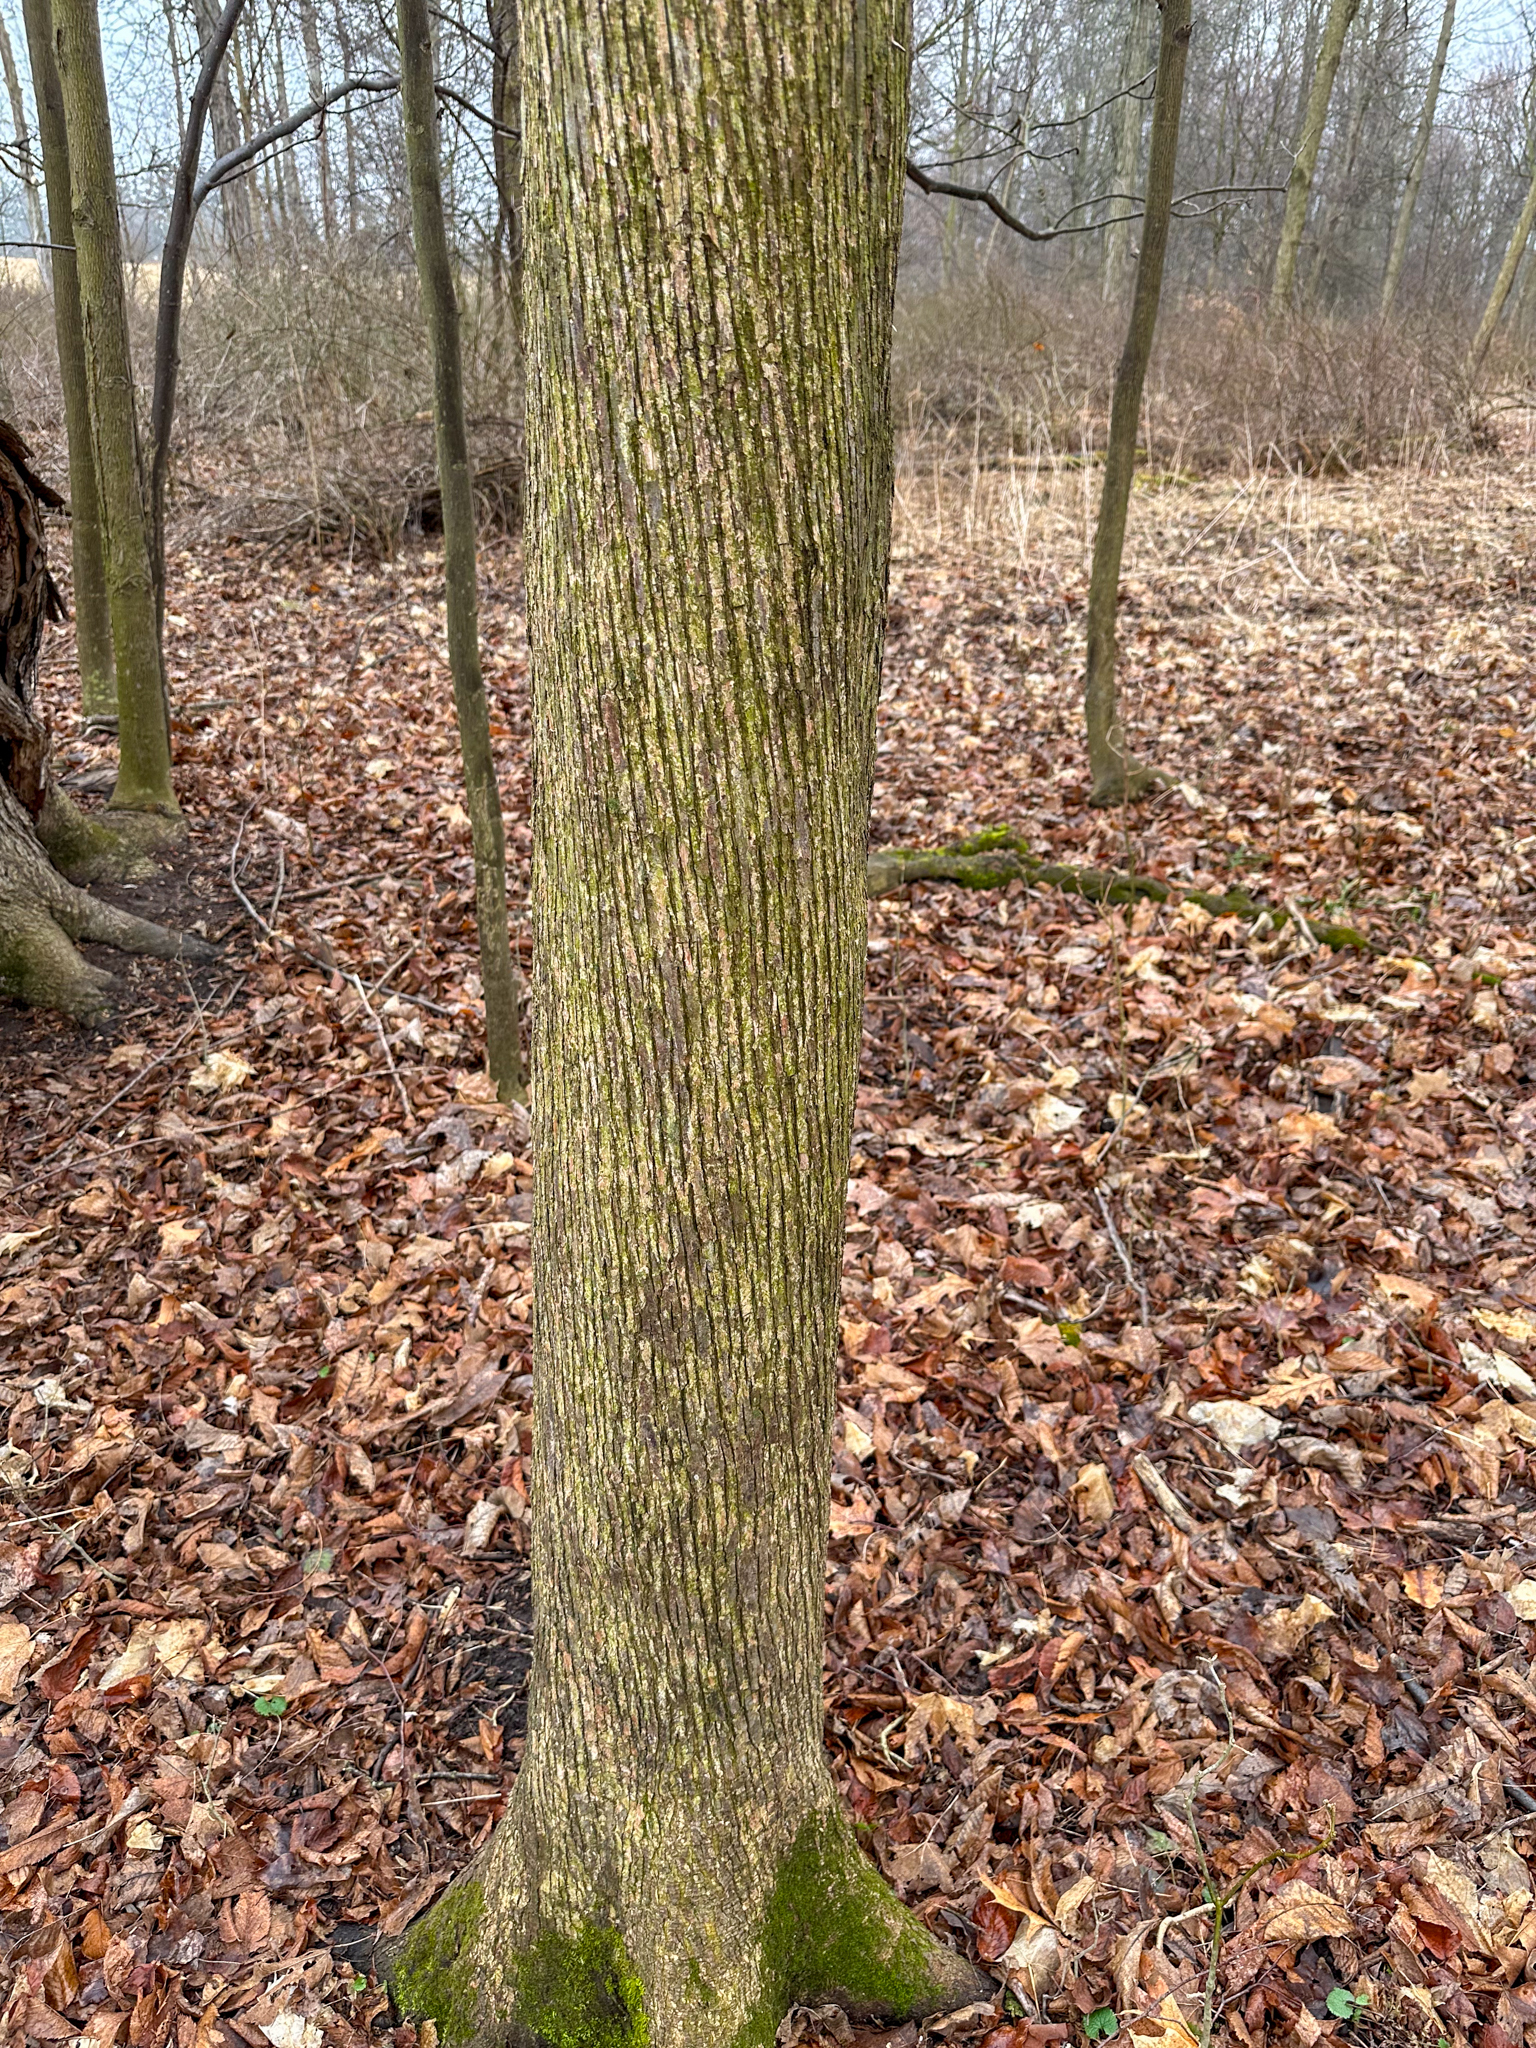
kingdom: Plantae
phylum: Tracheophyta
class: Magnoliopsida
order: Fagales
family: Betulaceae
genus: Ostrya
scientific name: Ostrya virginiana
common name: Ironwood
